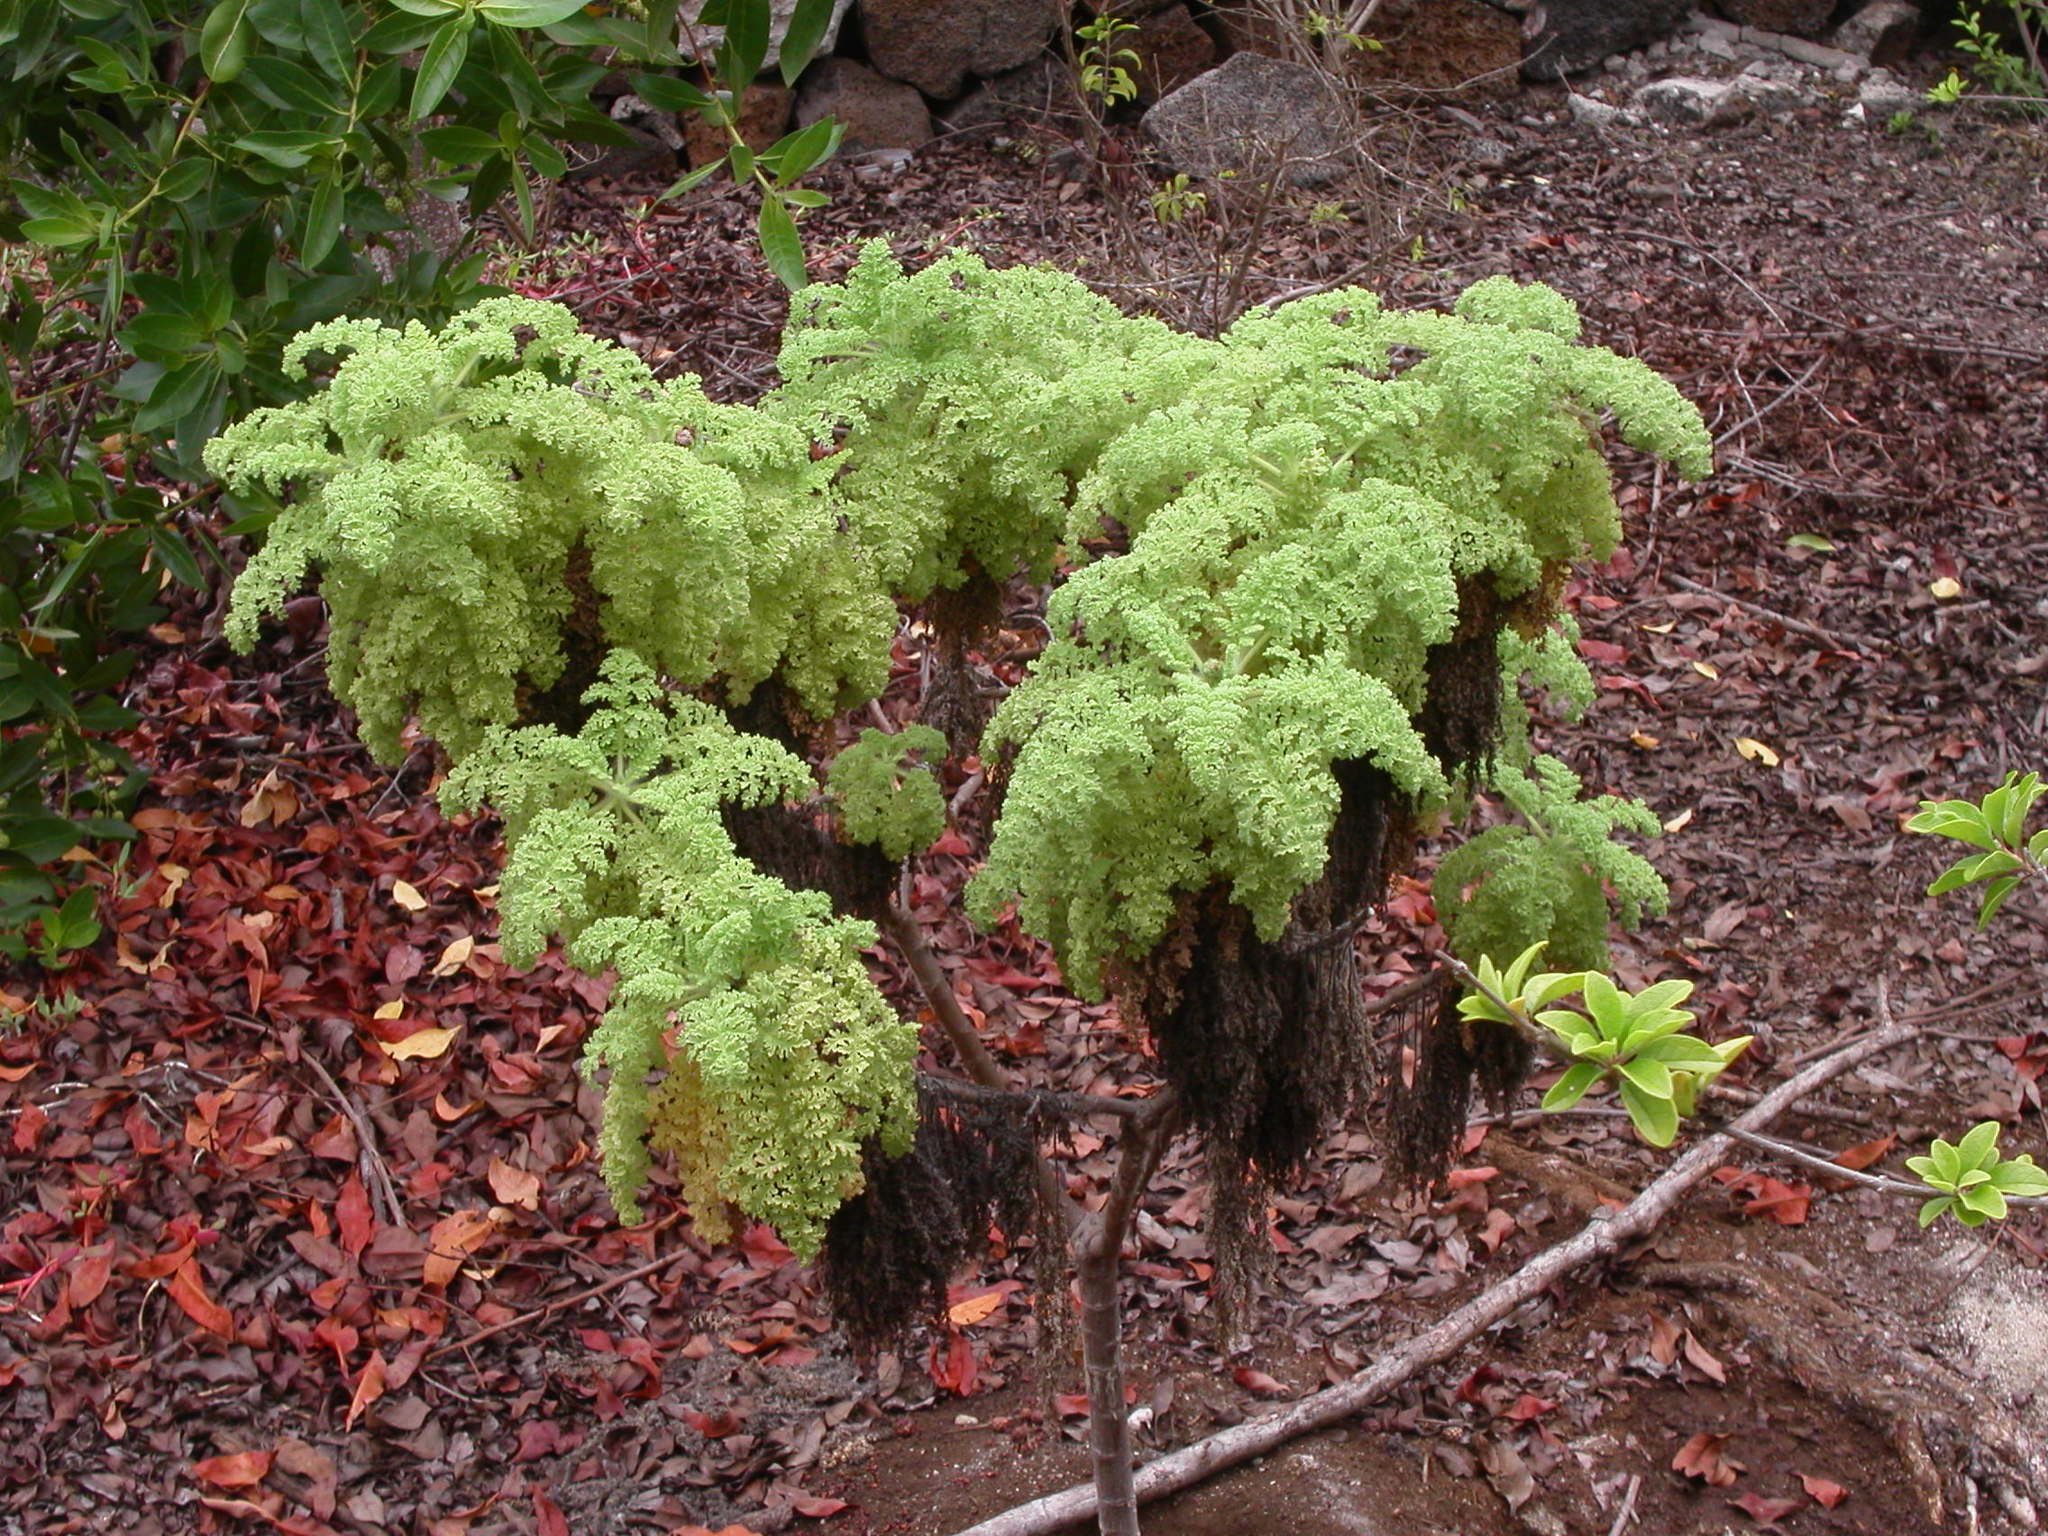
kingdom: Plantae
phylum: Tracheophyta
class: Magnoliopsida
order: Asterales
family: Asteraceae
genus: Scalesia
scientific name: Scalesia helleri
